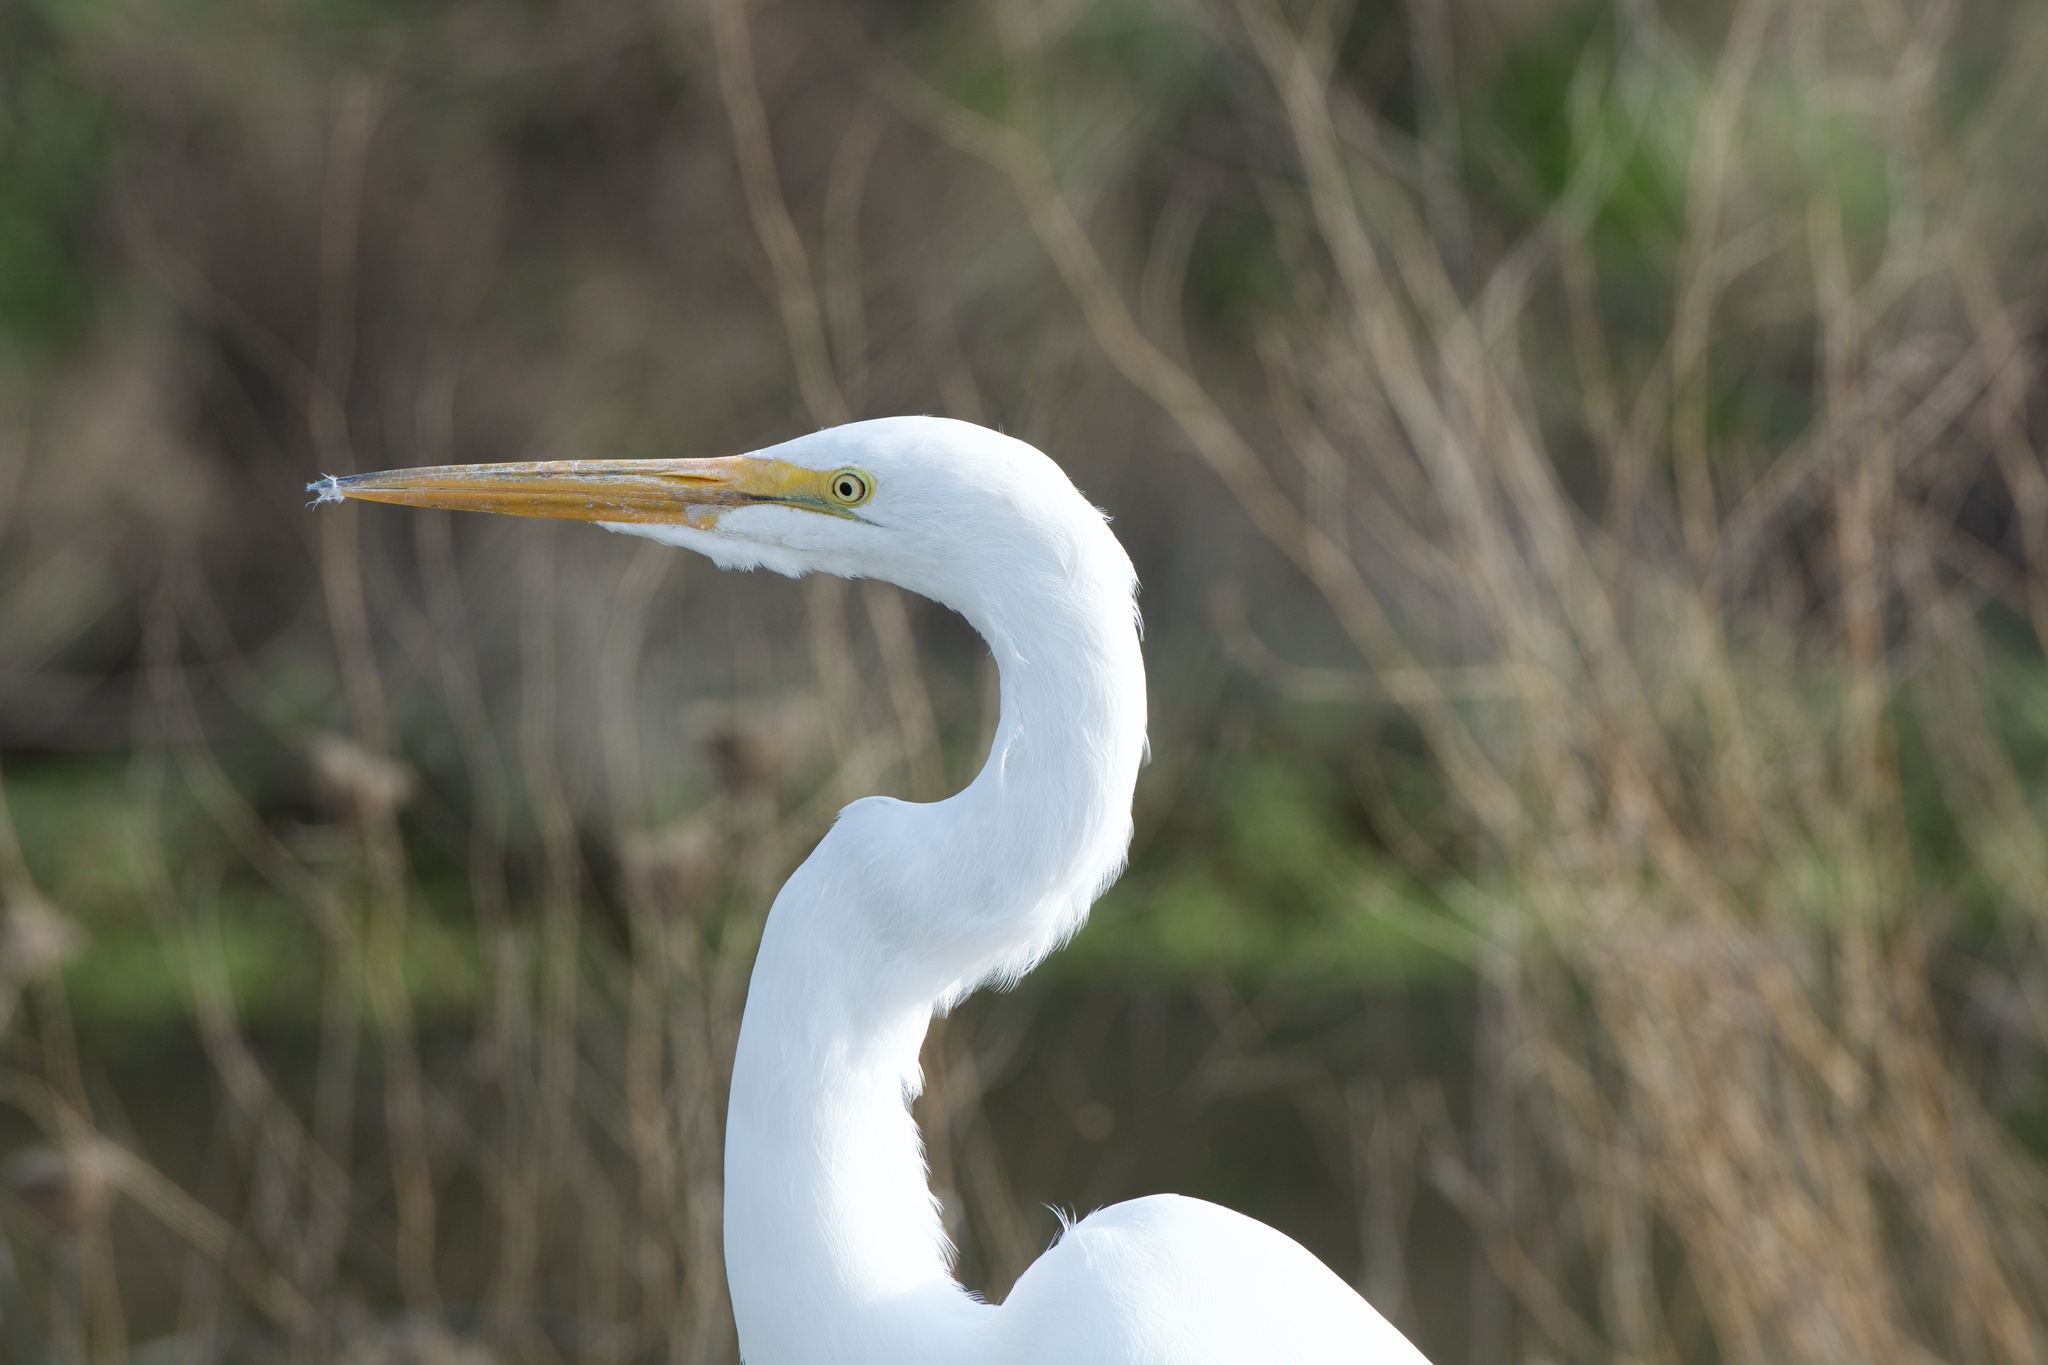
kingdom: Animalia
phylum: Chordata
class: Aves
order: Pelecaniformes
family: Ardeidae
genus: Ardea
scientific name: Ardea alba
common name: Great egret
